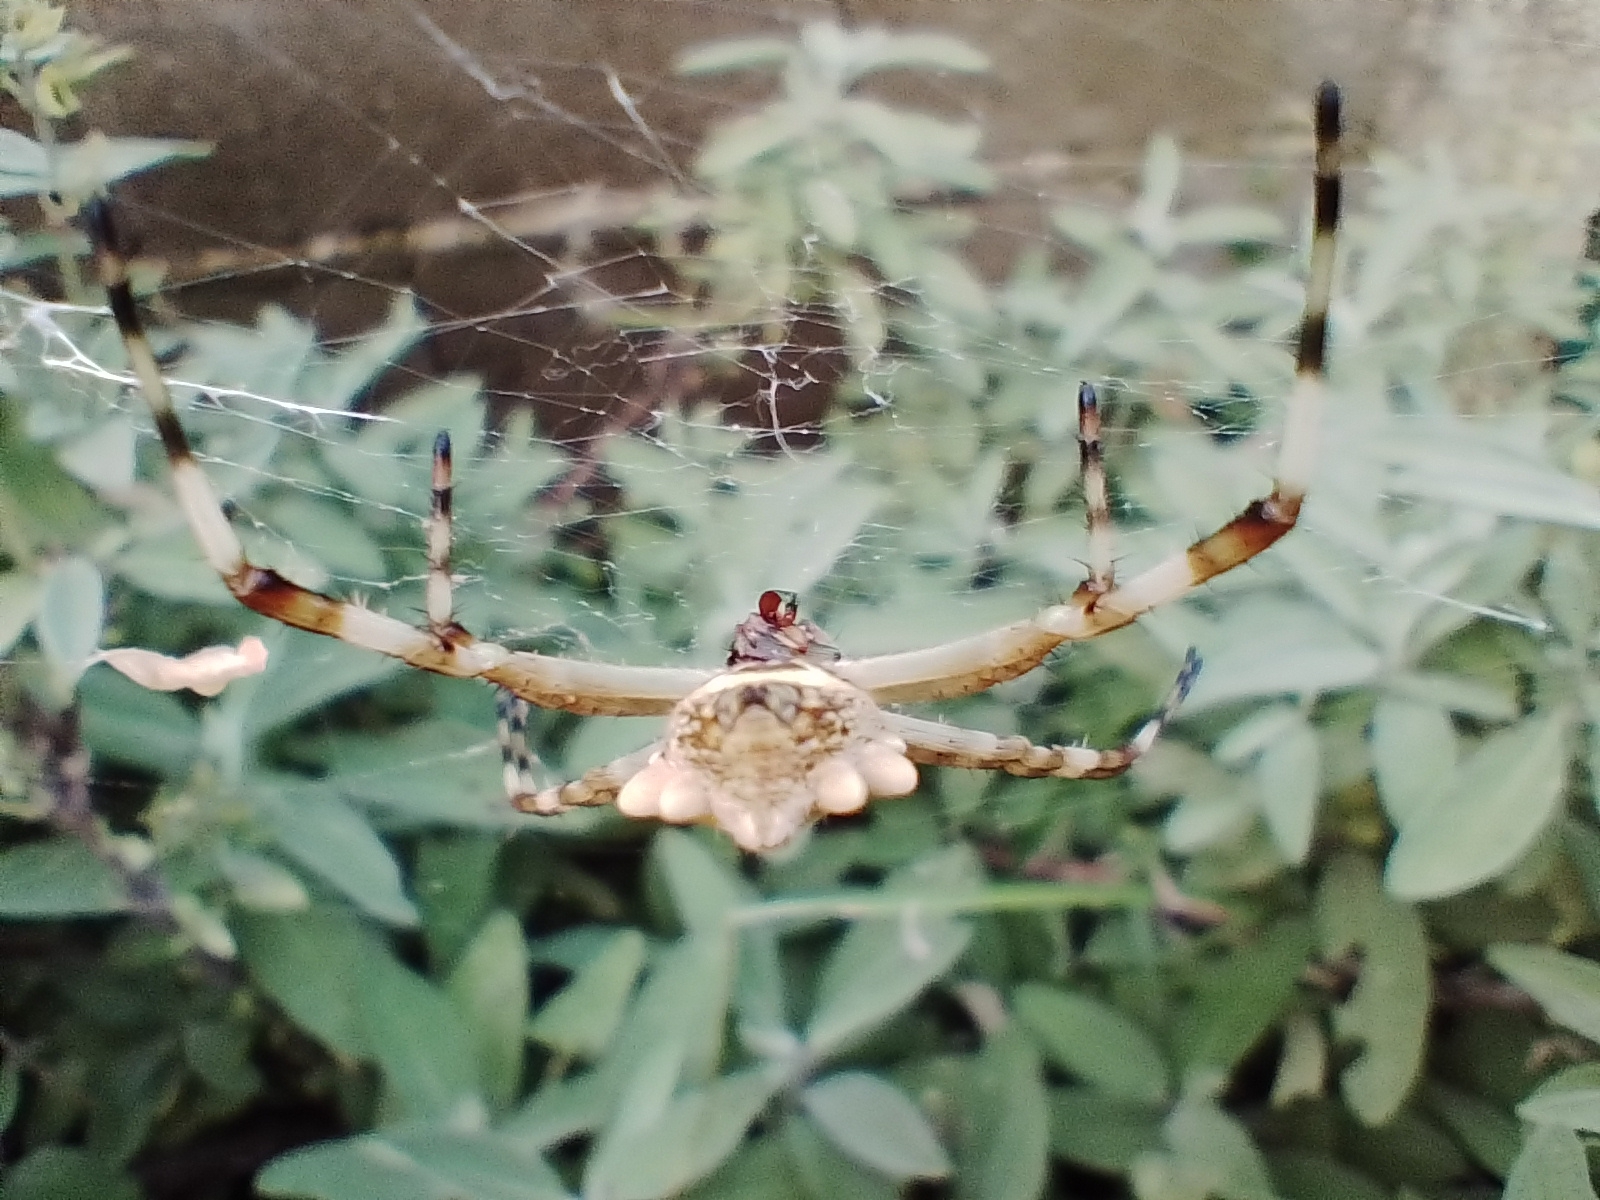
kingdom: Animalia
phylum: Arthropoda
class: Arachnida
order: Araneae
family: Araneidae
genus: Argiope
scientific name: Argiope argentata
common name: Orb weavers
